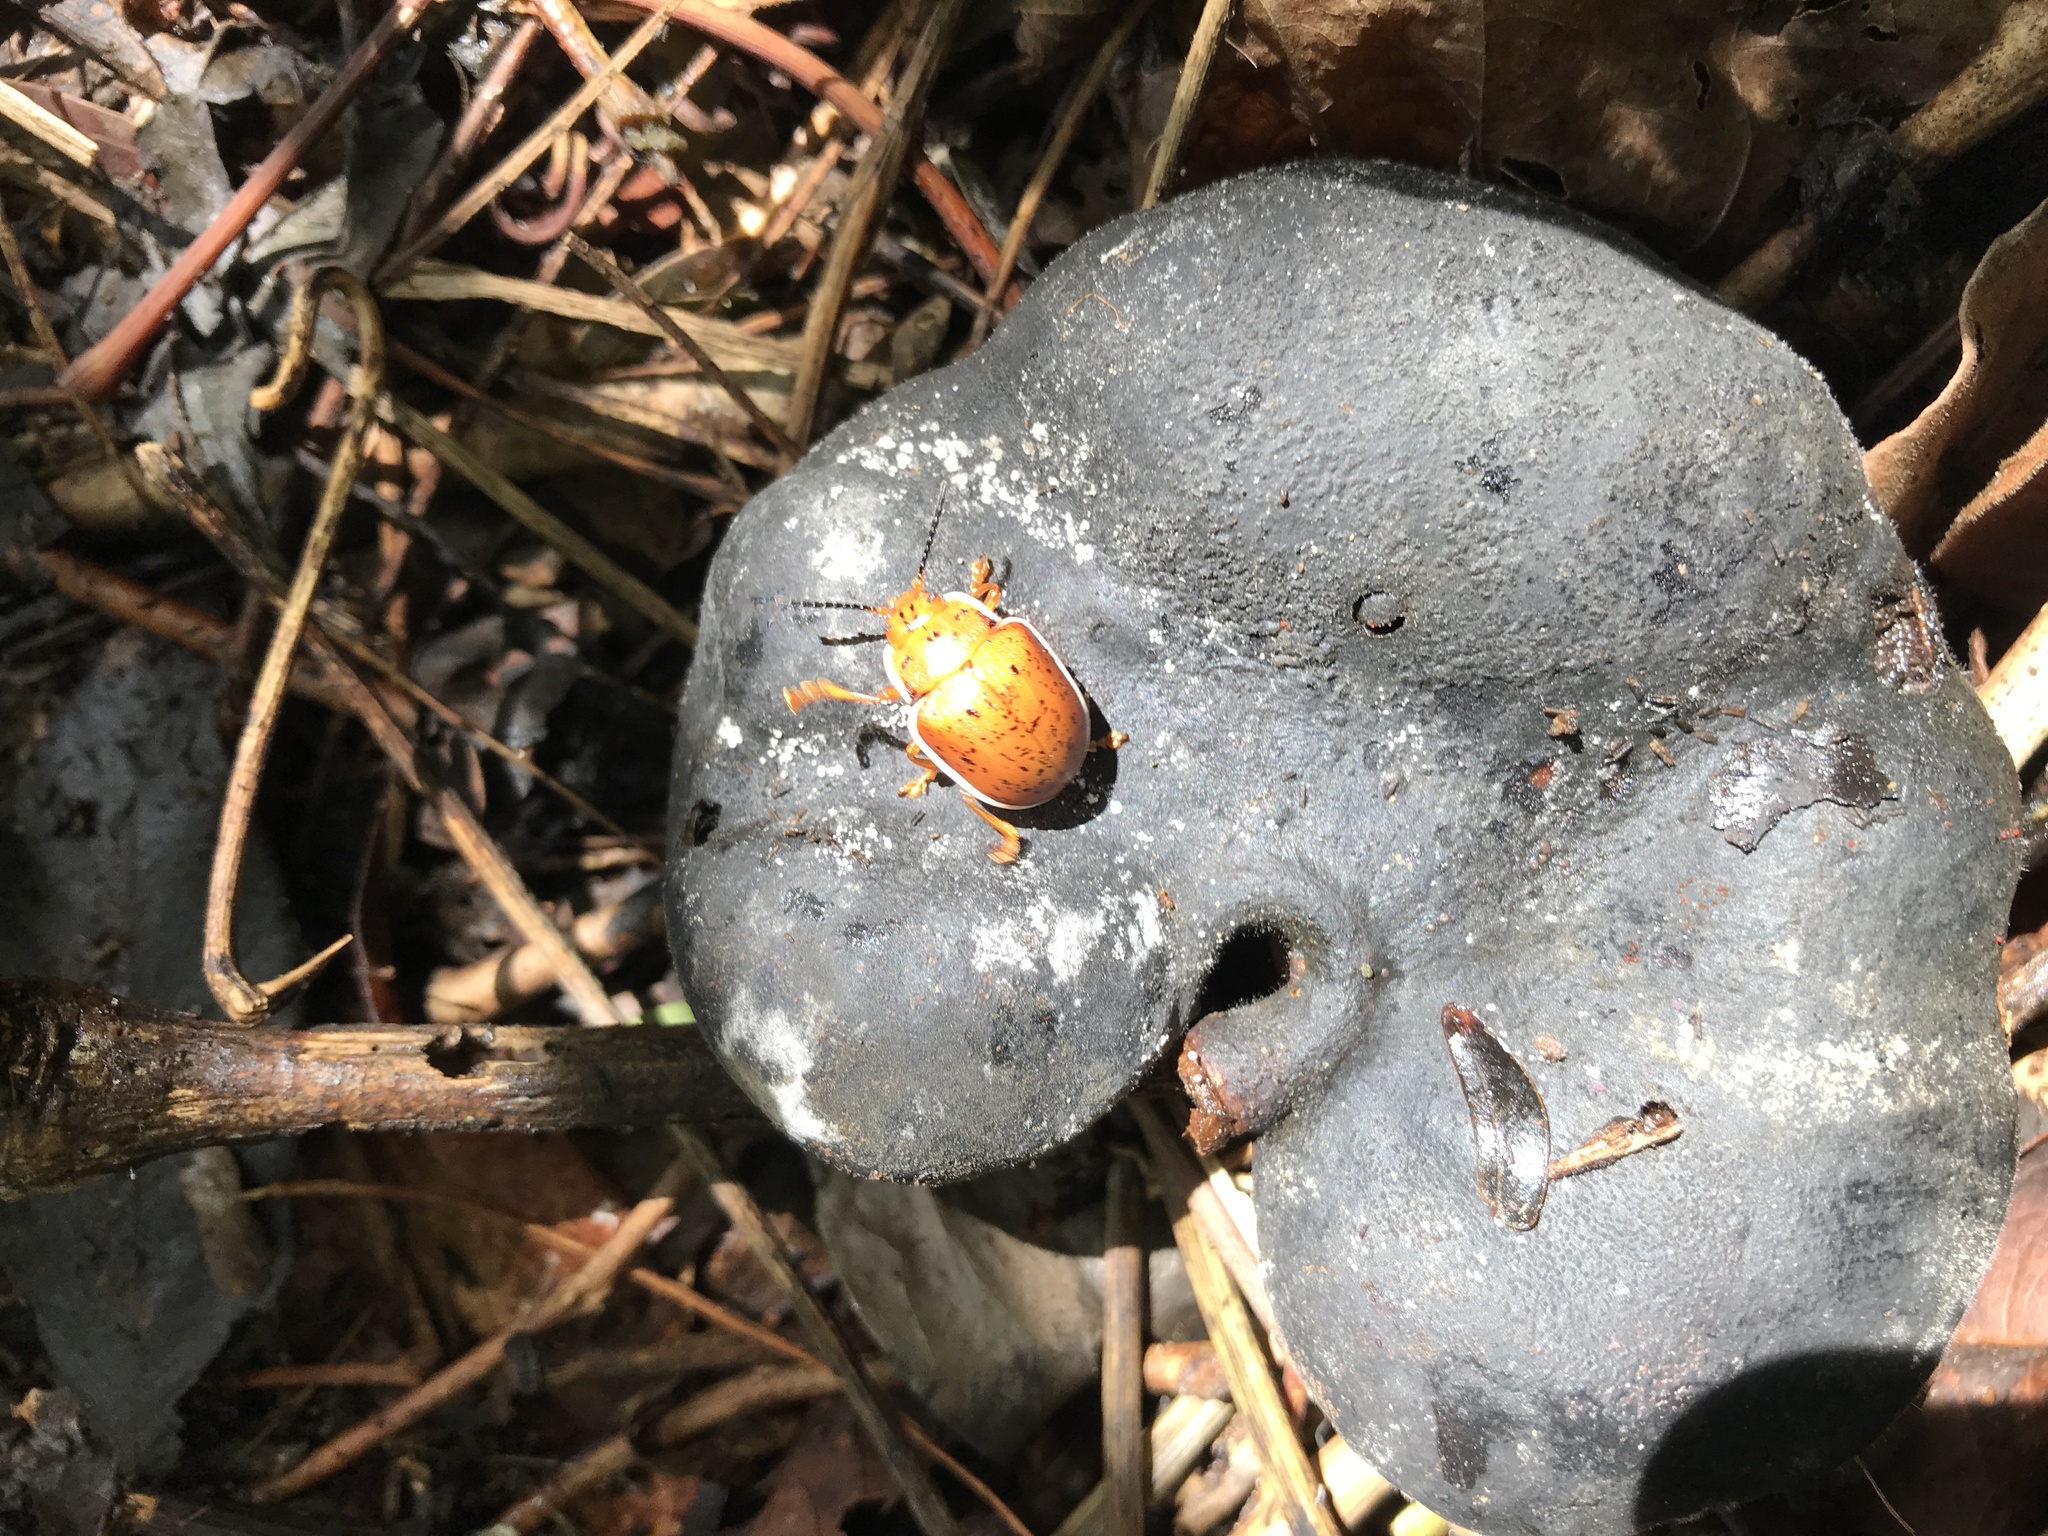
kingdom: Animalia
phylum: Arthropoda
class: Insecta
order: Coleoptera
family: Chrysomelidae
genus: Platyphora
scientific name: Platyphora
